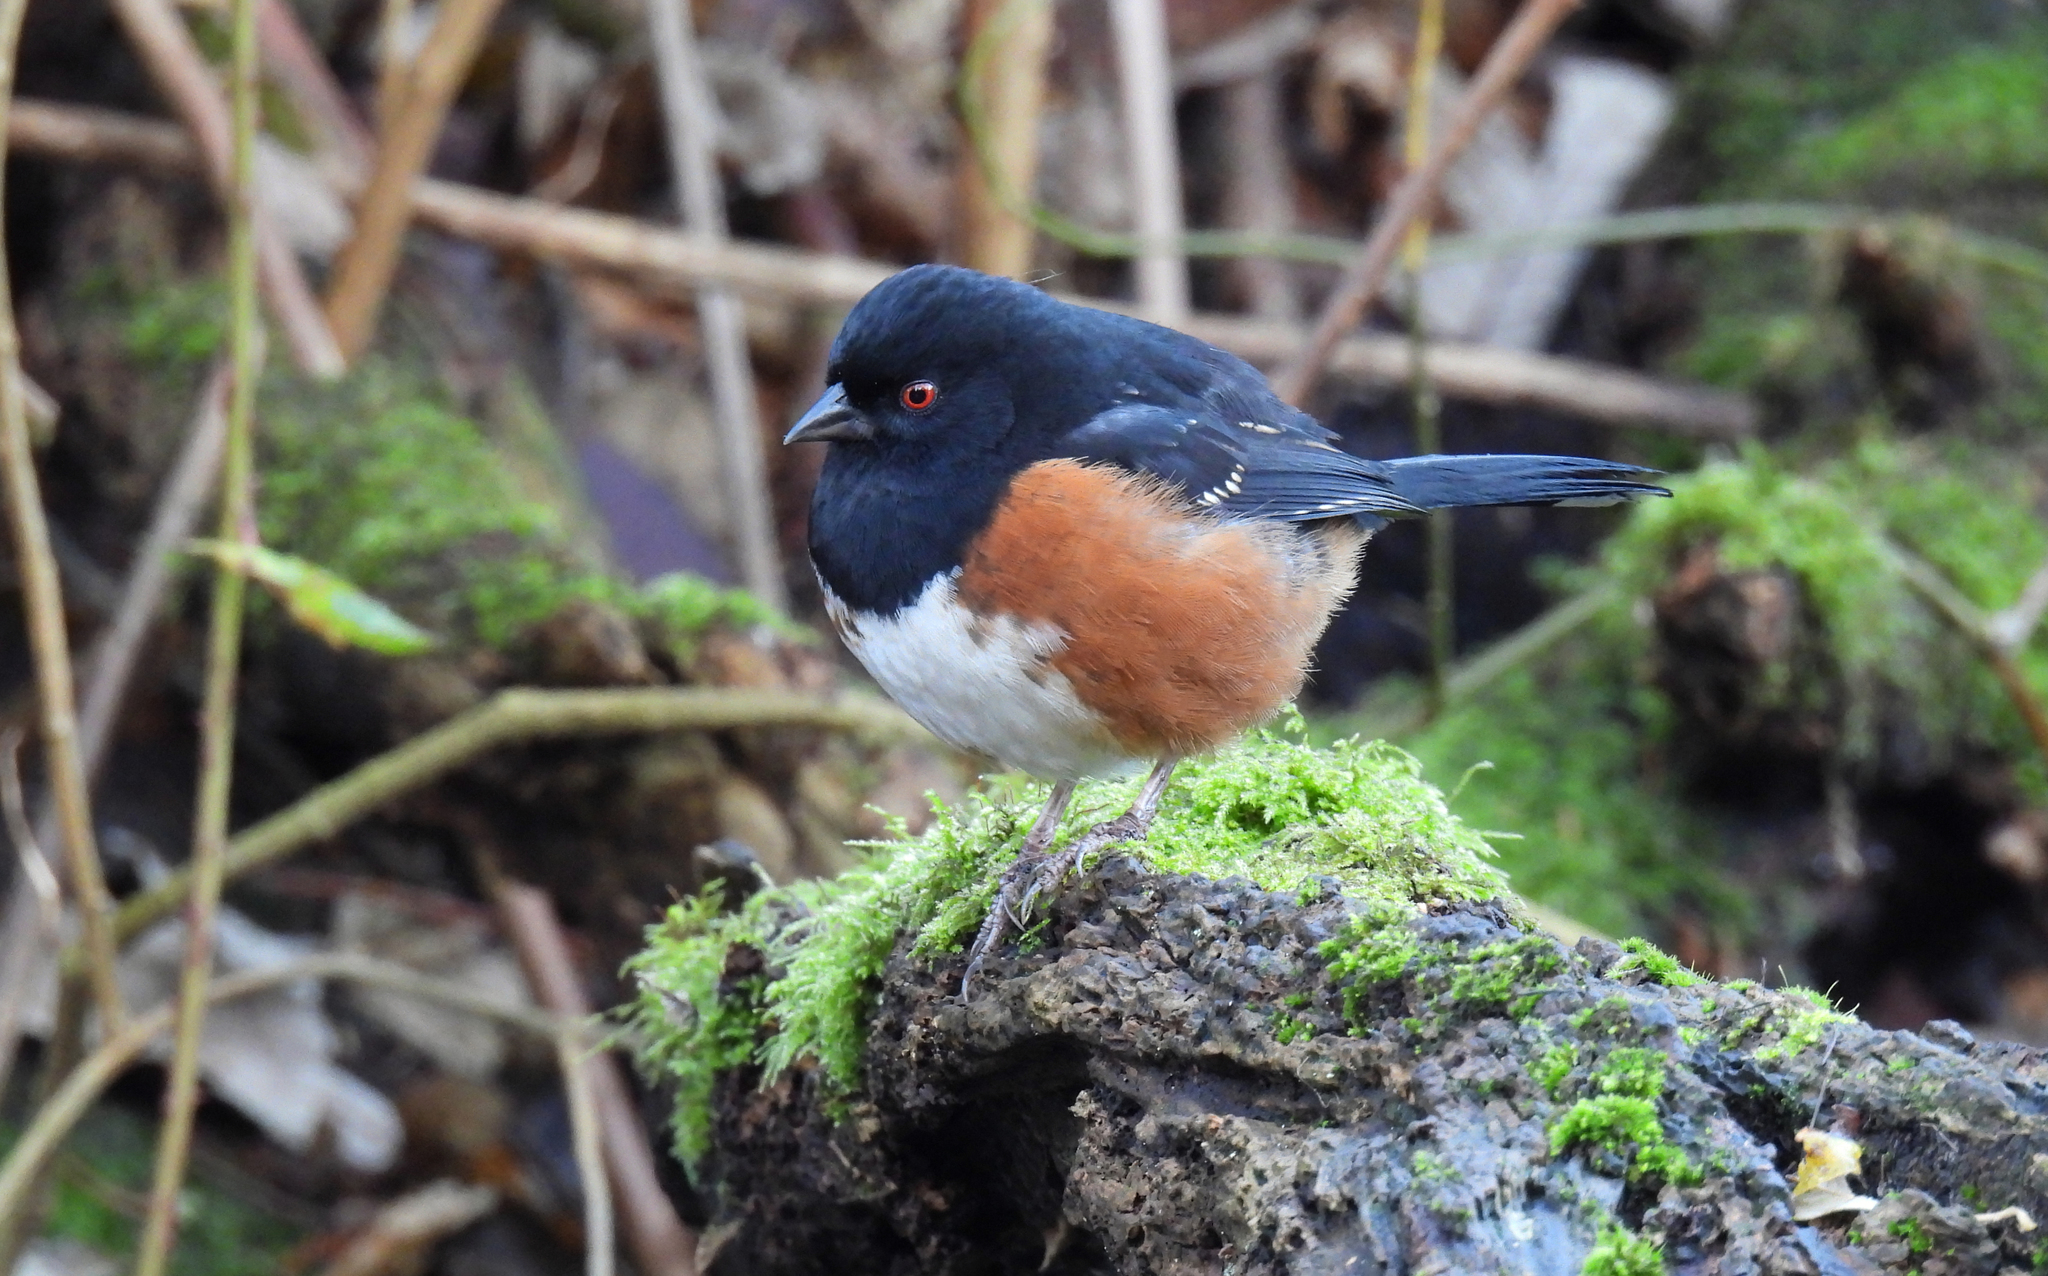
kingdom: Animalia
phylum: Chordata
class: Aves
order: Passeriformes
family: Passerellidae
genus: Pipilo
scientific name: Pipilo maculatus
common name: Spotted towhee
